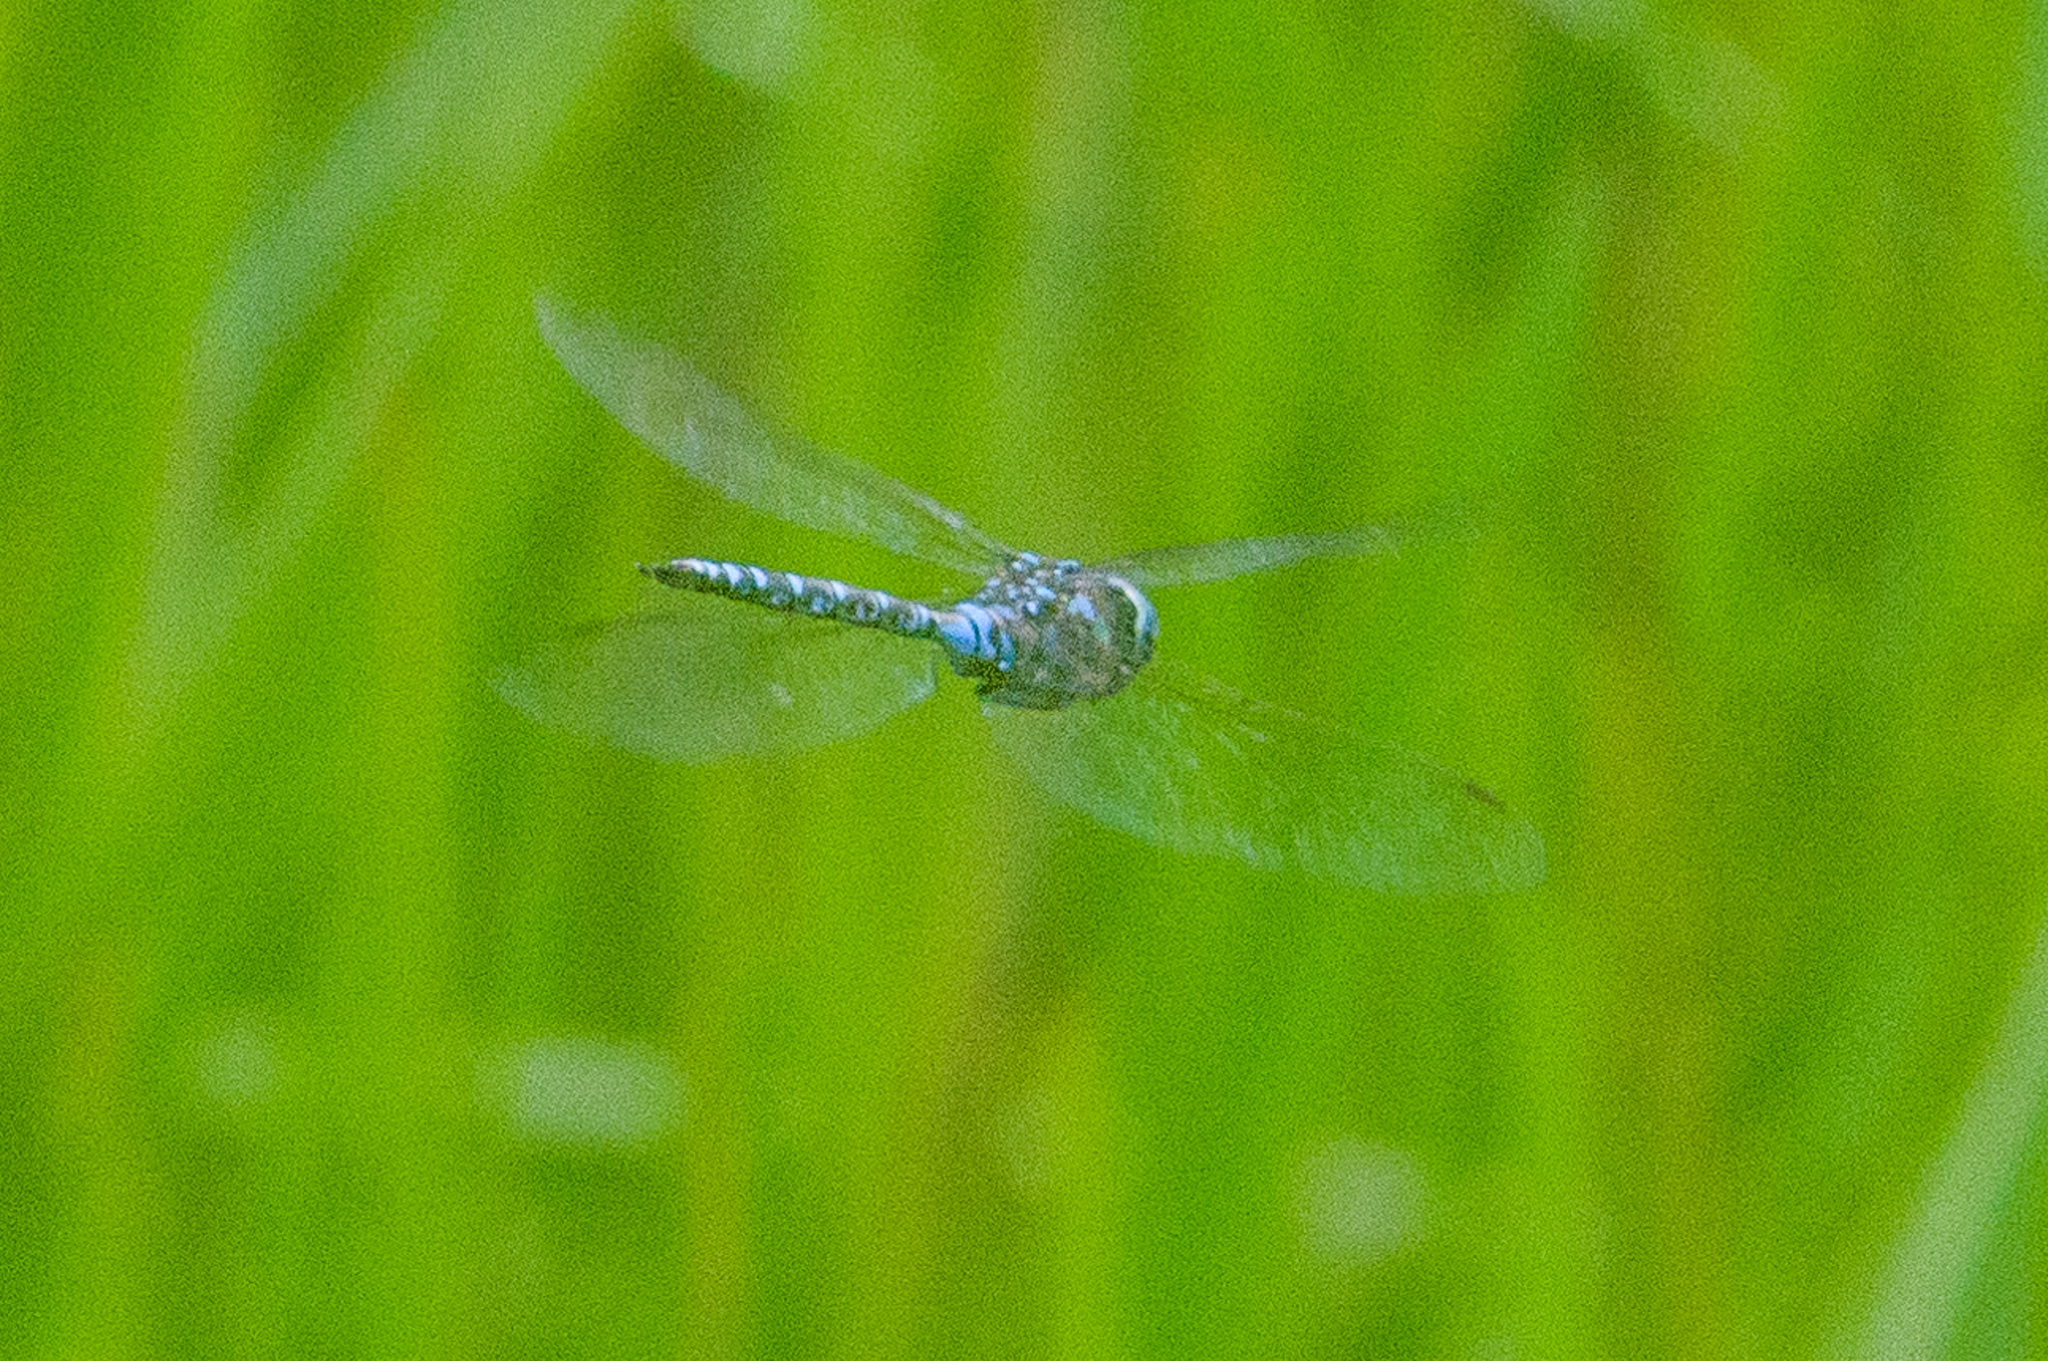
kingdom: Animalia
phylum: Arthropoda
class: Insecta
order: Odonata
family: Aeshnidae
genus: Aeshna
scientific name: Aeshna canadensis
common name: Canada darner
